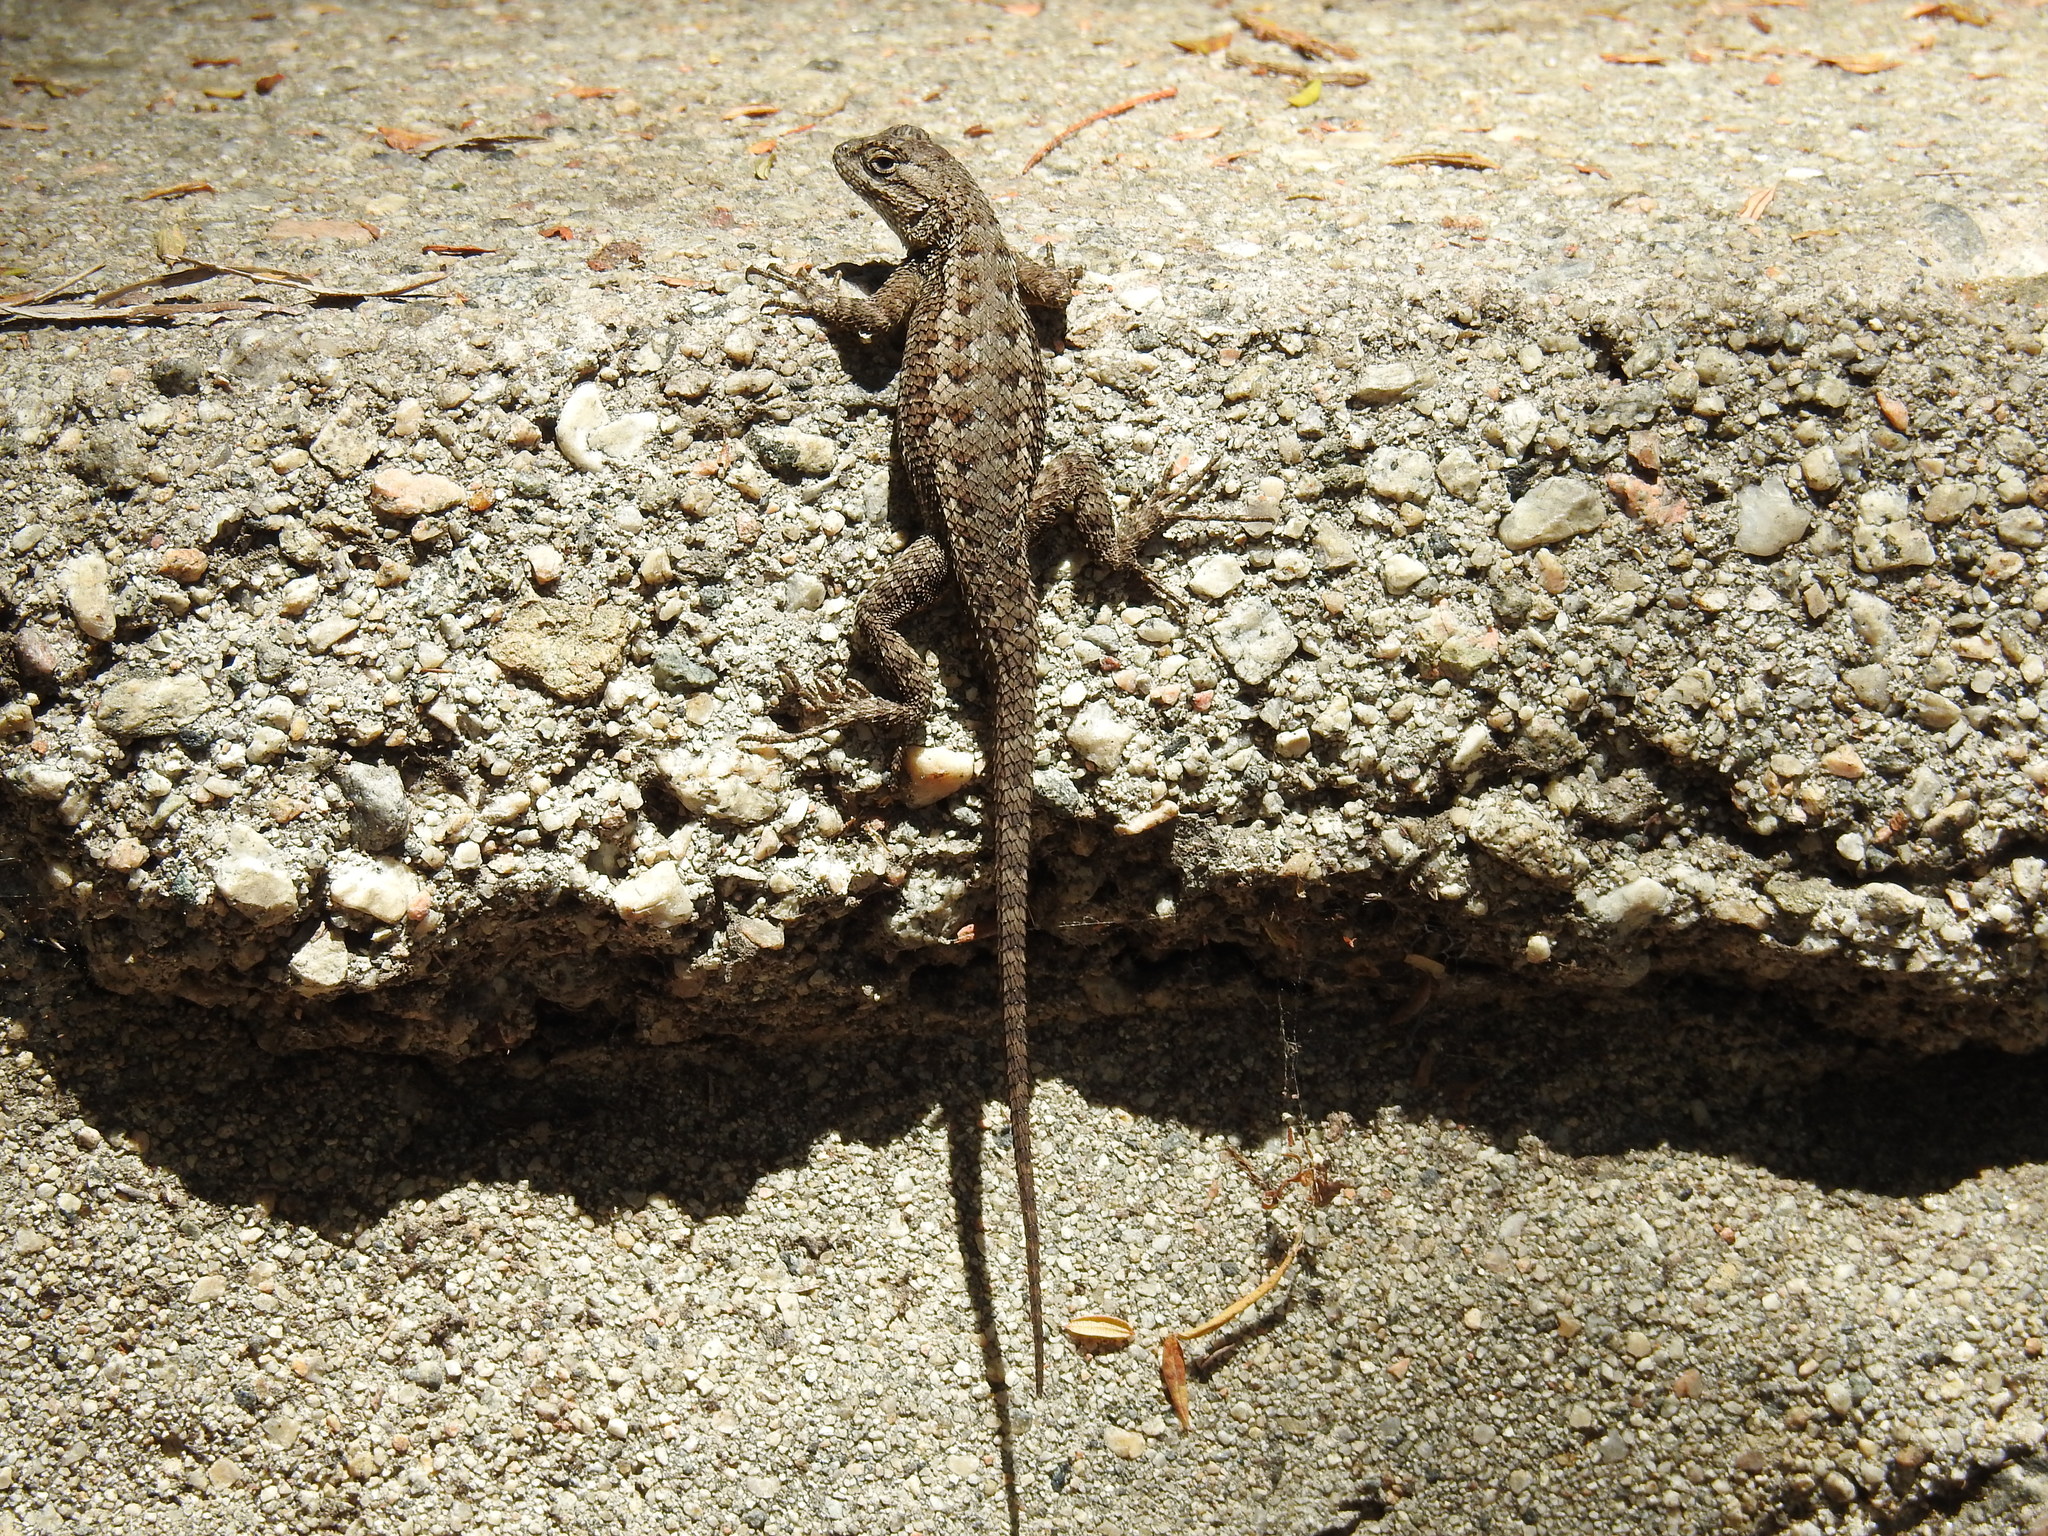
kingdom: Animalia
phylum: Chordata
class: Squamata
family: Phrynosomatidae
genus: Sceloporus
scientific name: Sceloporus occidentalis
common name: Western fence lizard
